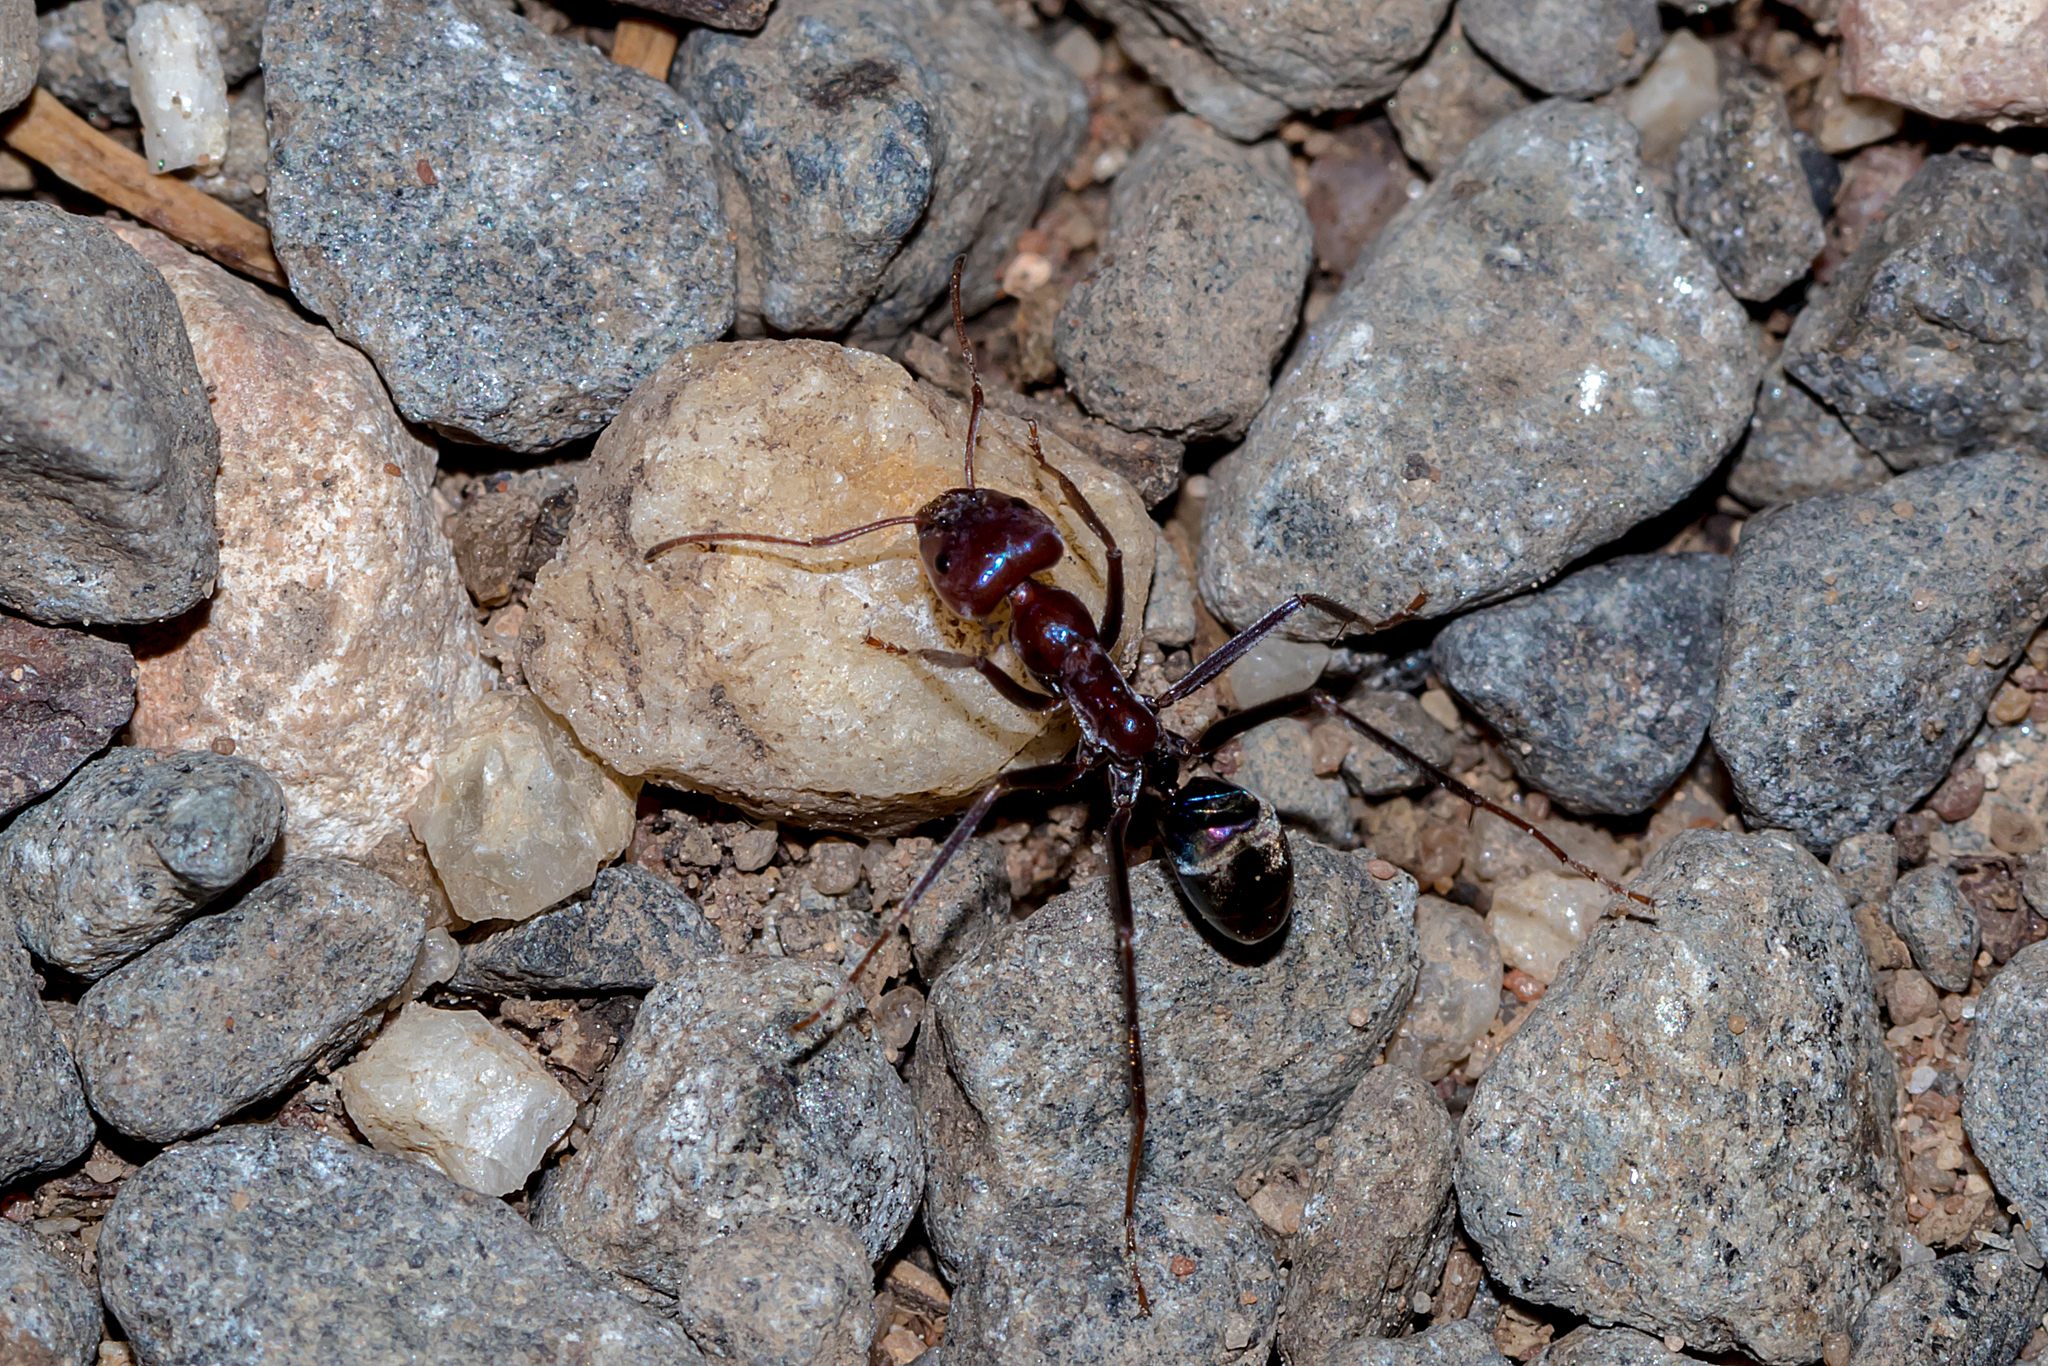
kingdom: Animalia
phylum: Arthropoda
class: Insecta
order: Hymenoptera
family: Formicidae
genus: Iridomyrmex
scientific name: Iridomyrmex purpureus
